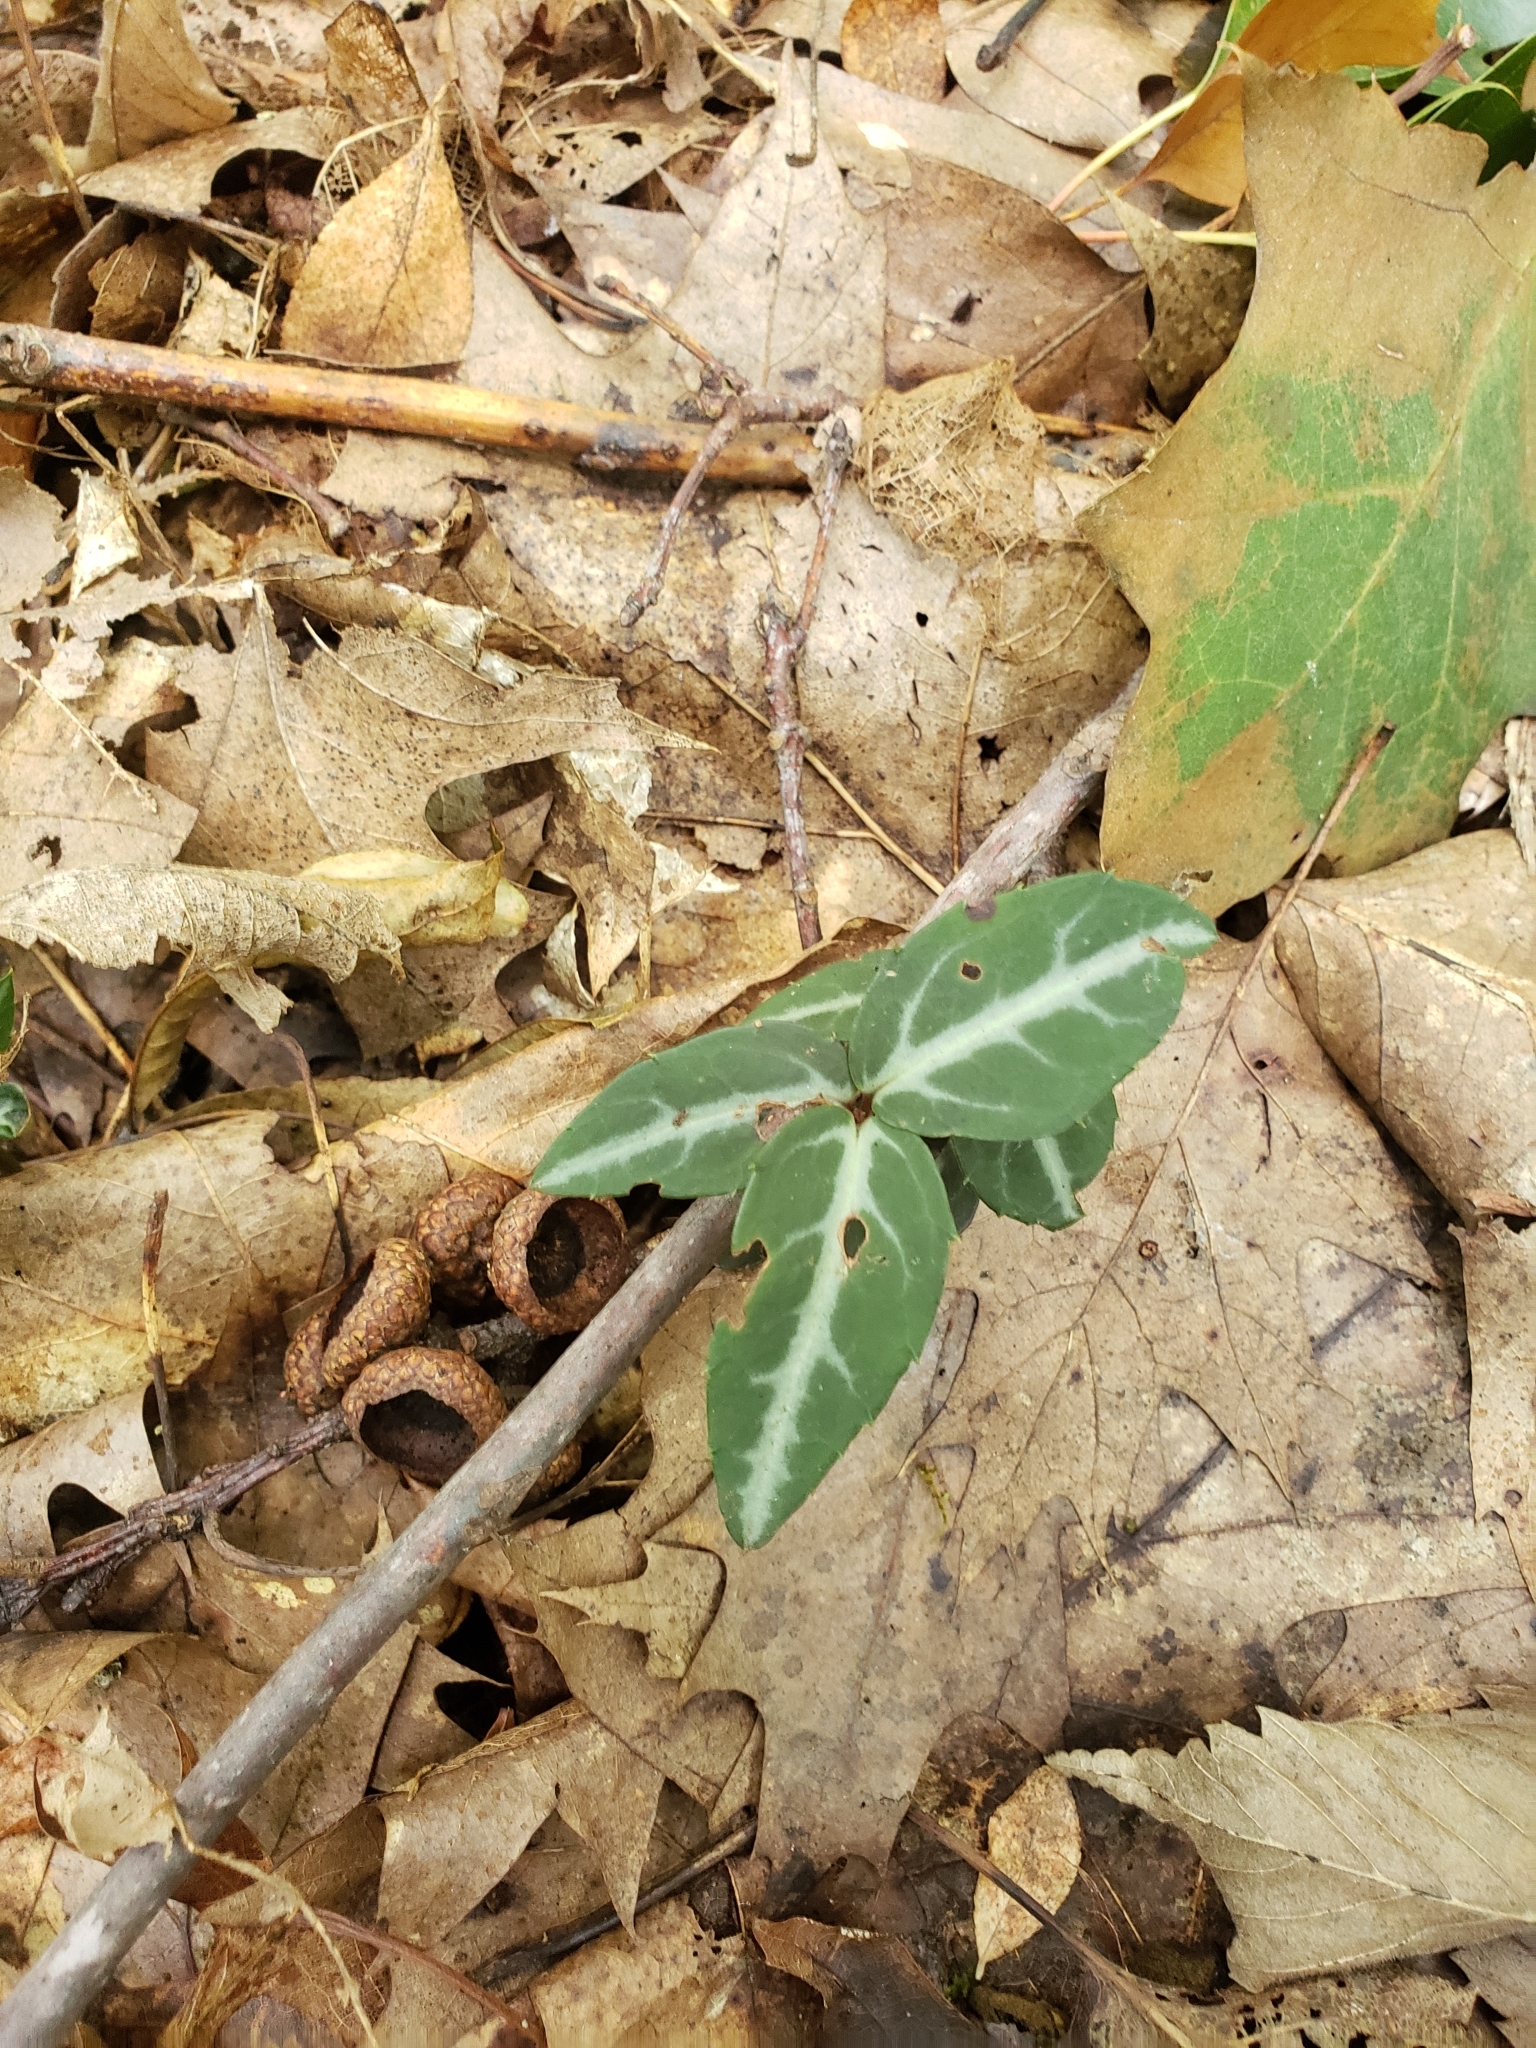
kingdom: Plantae
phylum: Tracheophyta
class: Magnoliopsida
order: Ericales
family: Ericaceae
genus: Chimaphila
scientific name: Chimaphila maculata
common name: Spotted pipsissewa
